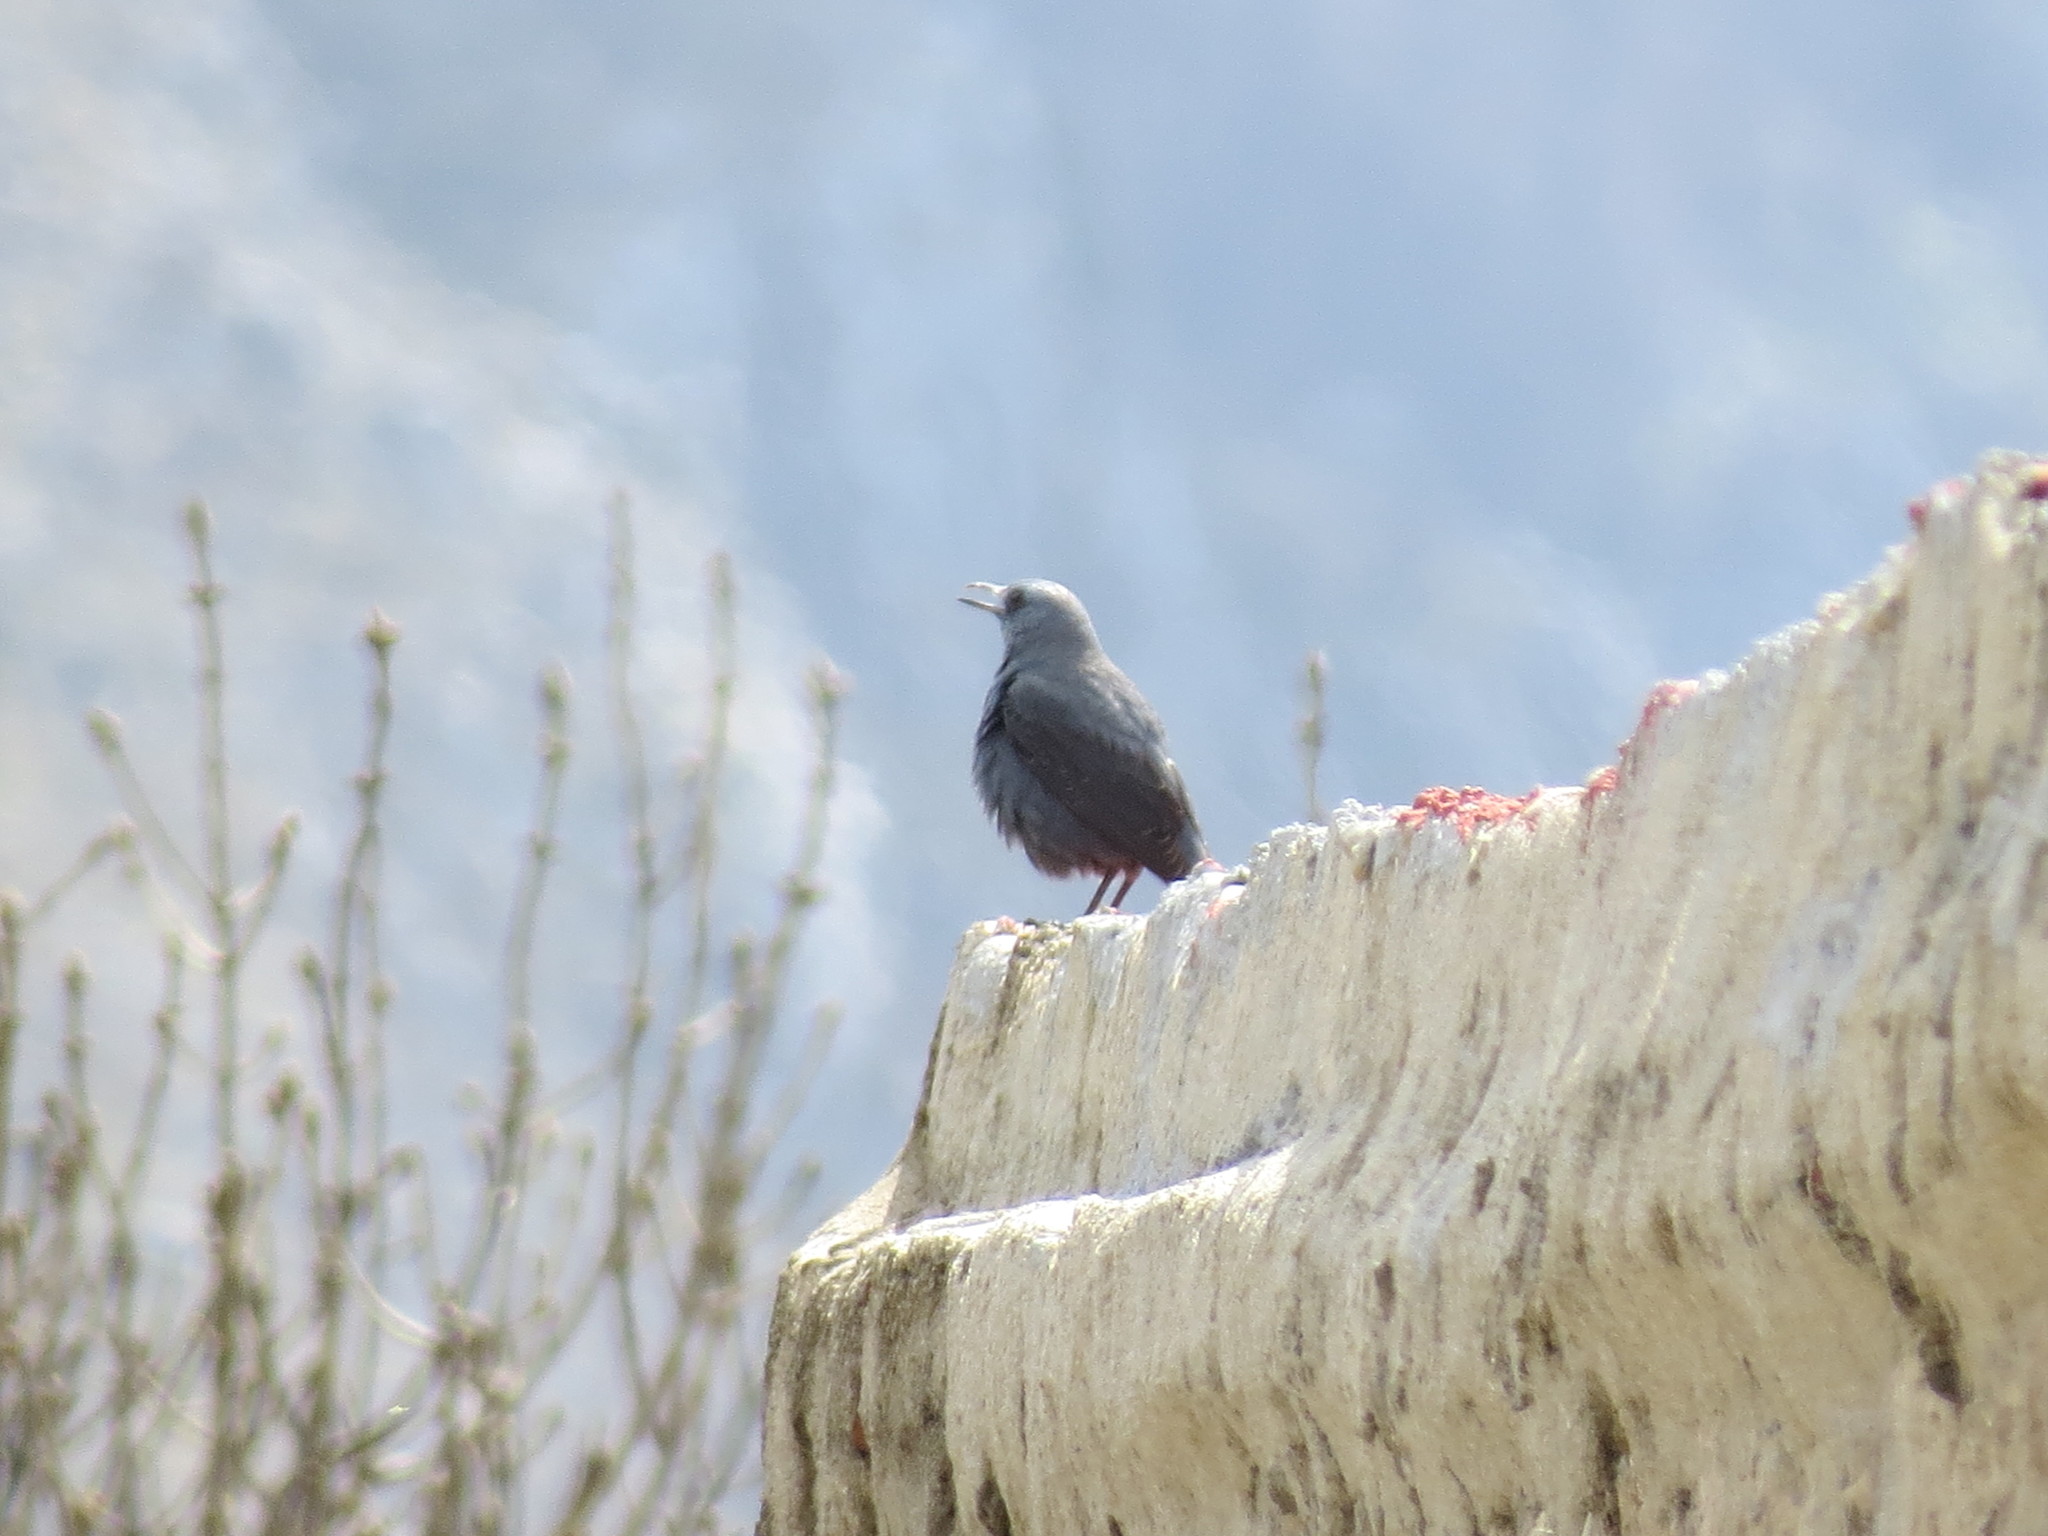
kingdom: Animalia
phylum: Chordata
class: Aves
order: Passeriformes
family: Muscicapidae
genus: Monticola
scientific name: Monticola solitarius
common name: Blue rock thrush
